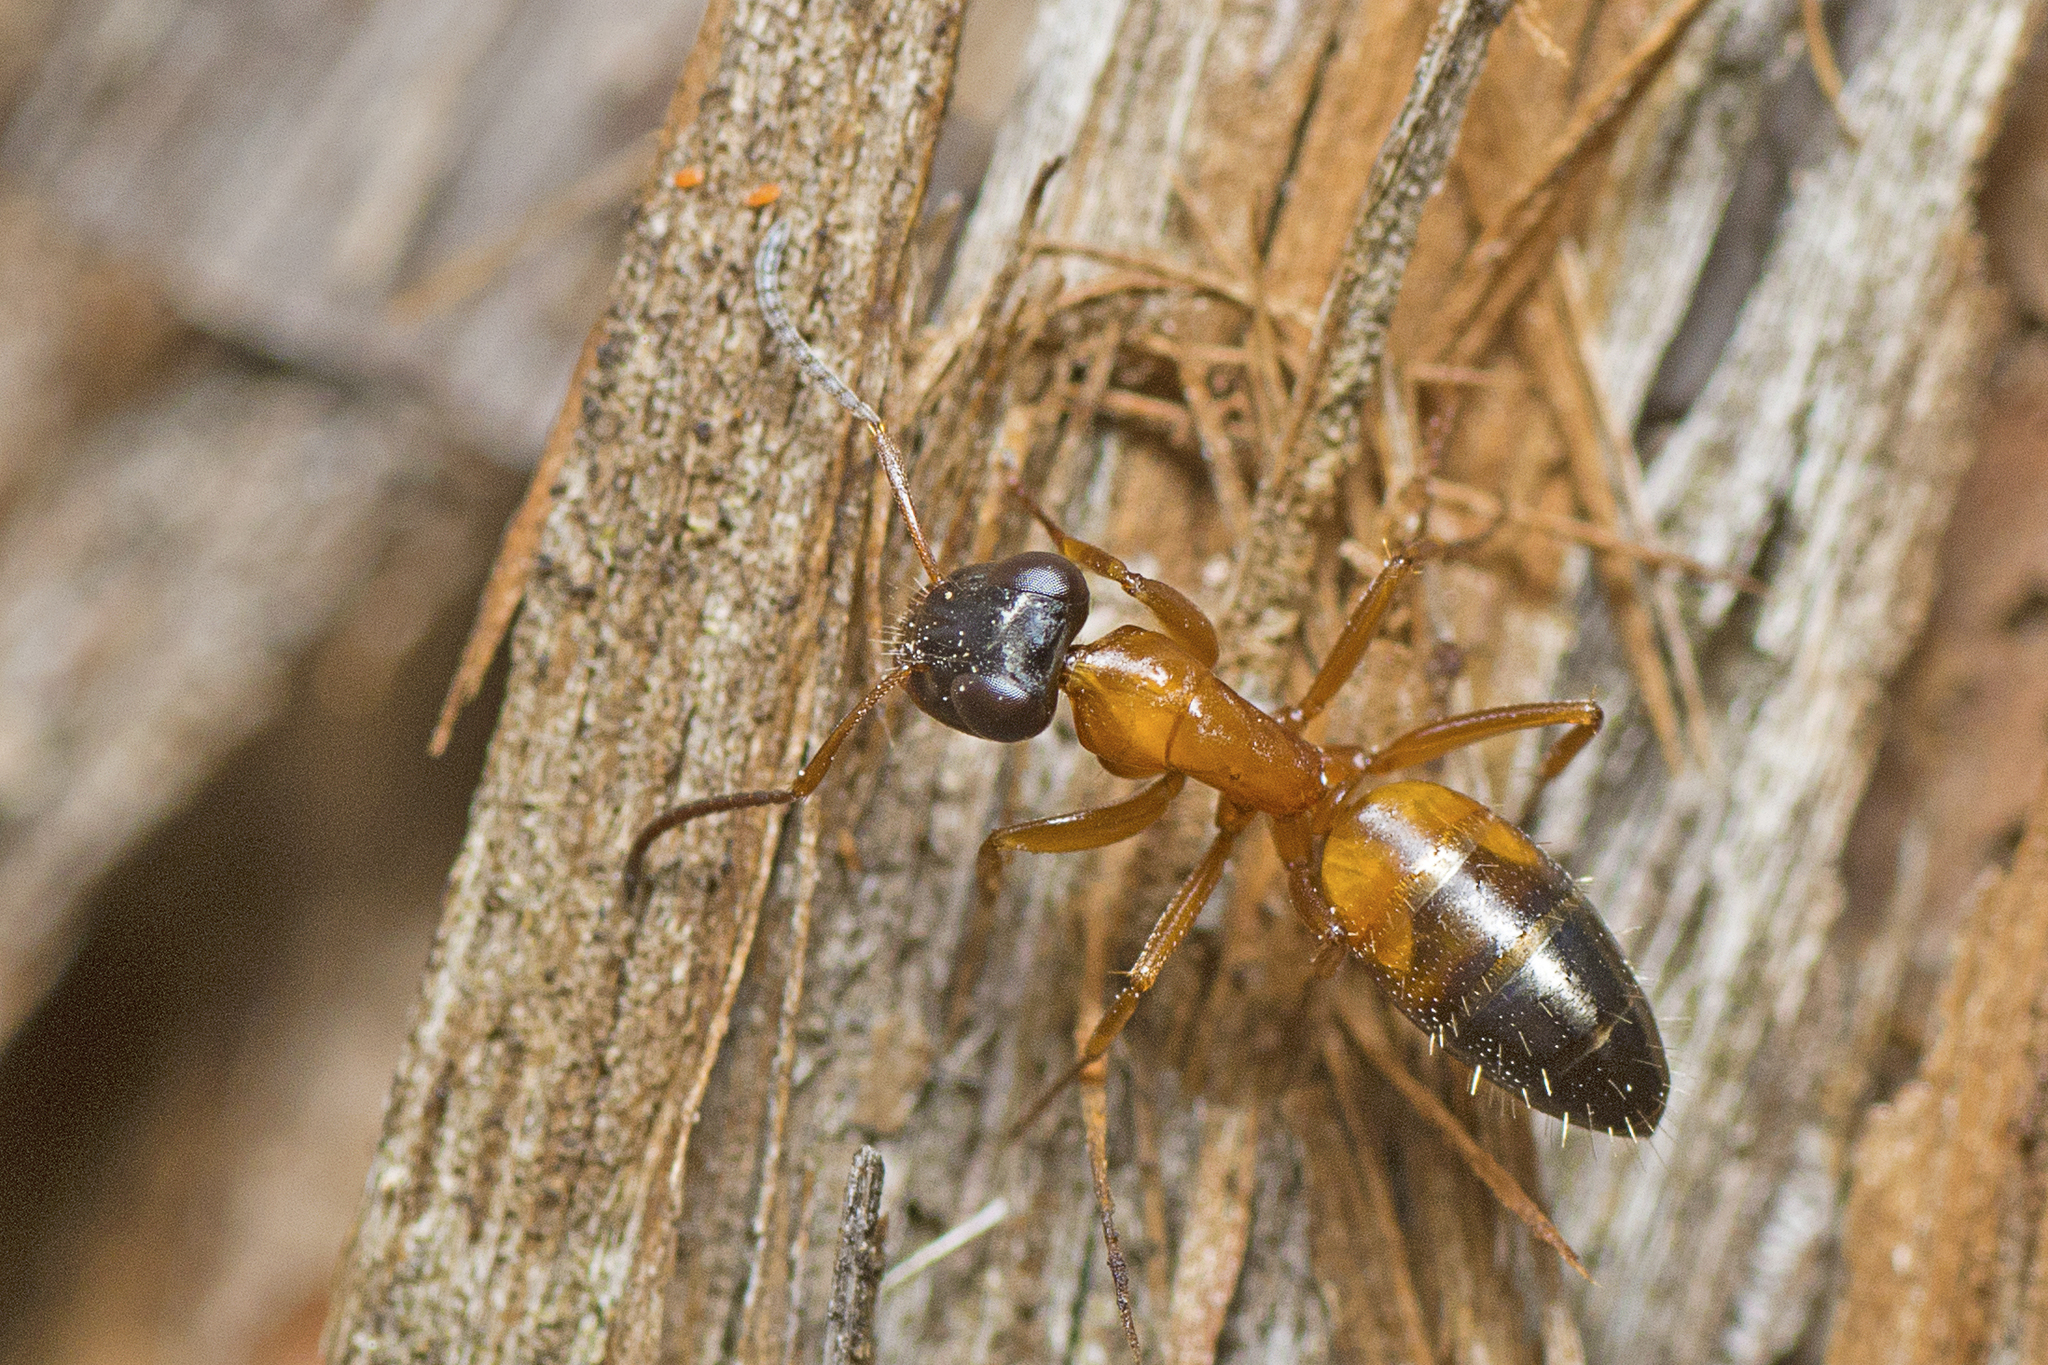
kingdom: Animalia
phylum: Arthropoda
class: Insecta
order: Hymenoptera
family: Formicidae
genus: Opisthopsis
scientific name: Opisthopsis rufithorax
